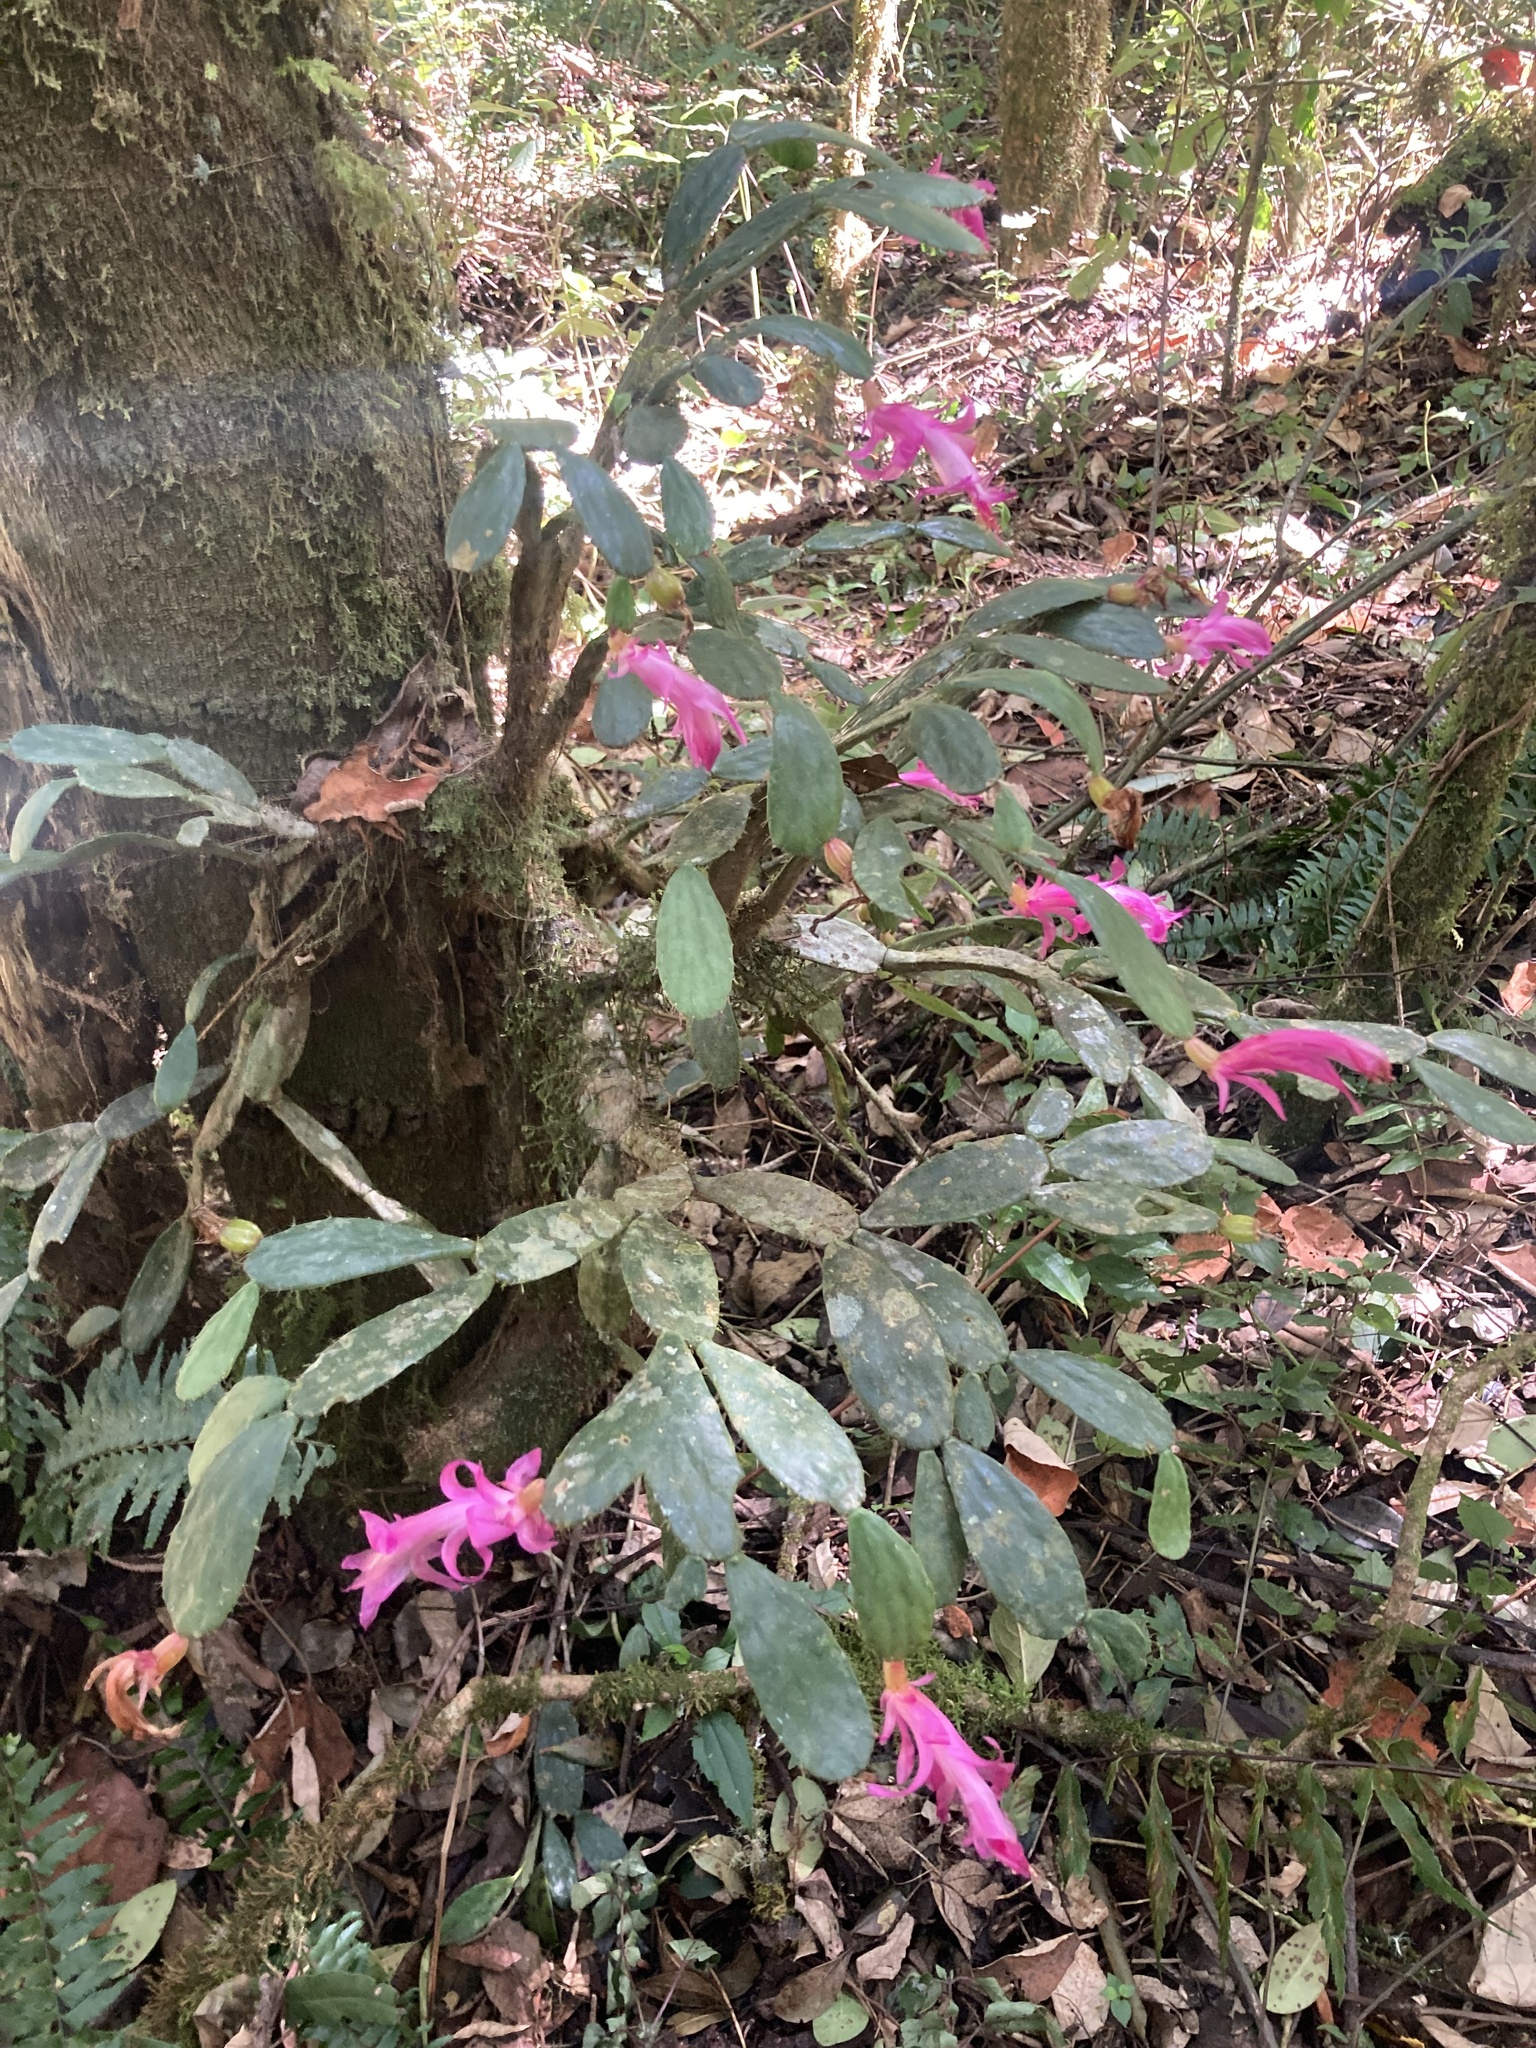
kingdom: Plantae
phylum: Tracheophyta
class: Magnoliopsida
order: Caryophyllales
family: Cactaceae
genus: Schlumbergera
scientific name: Schlumbergera opuntioides
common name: Christmas cactus
